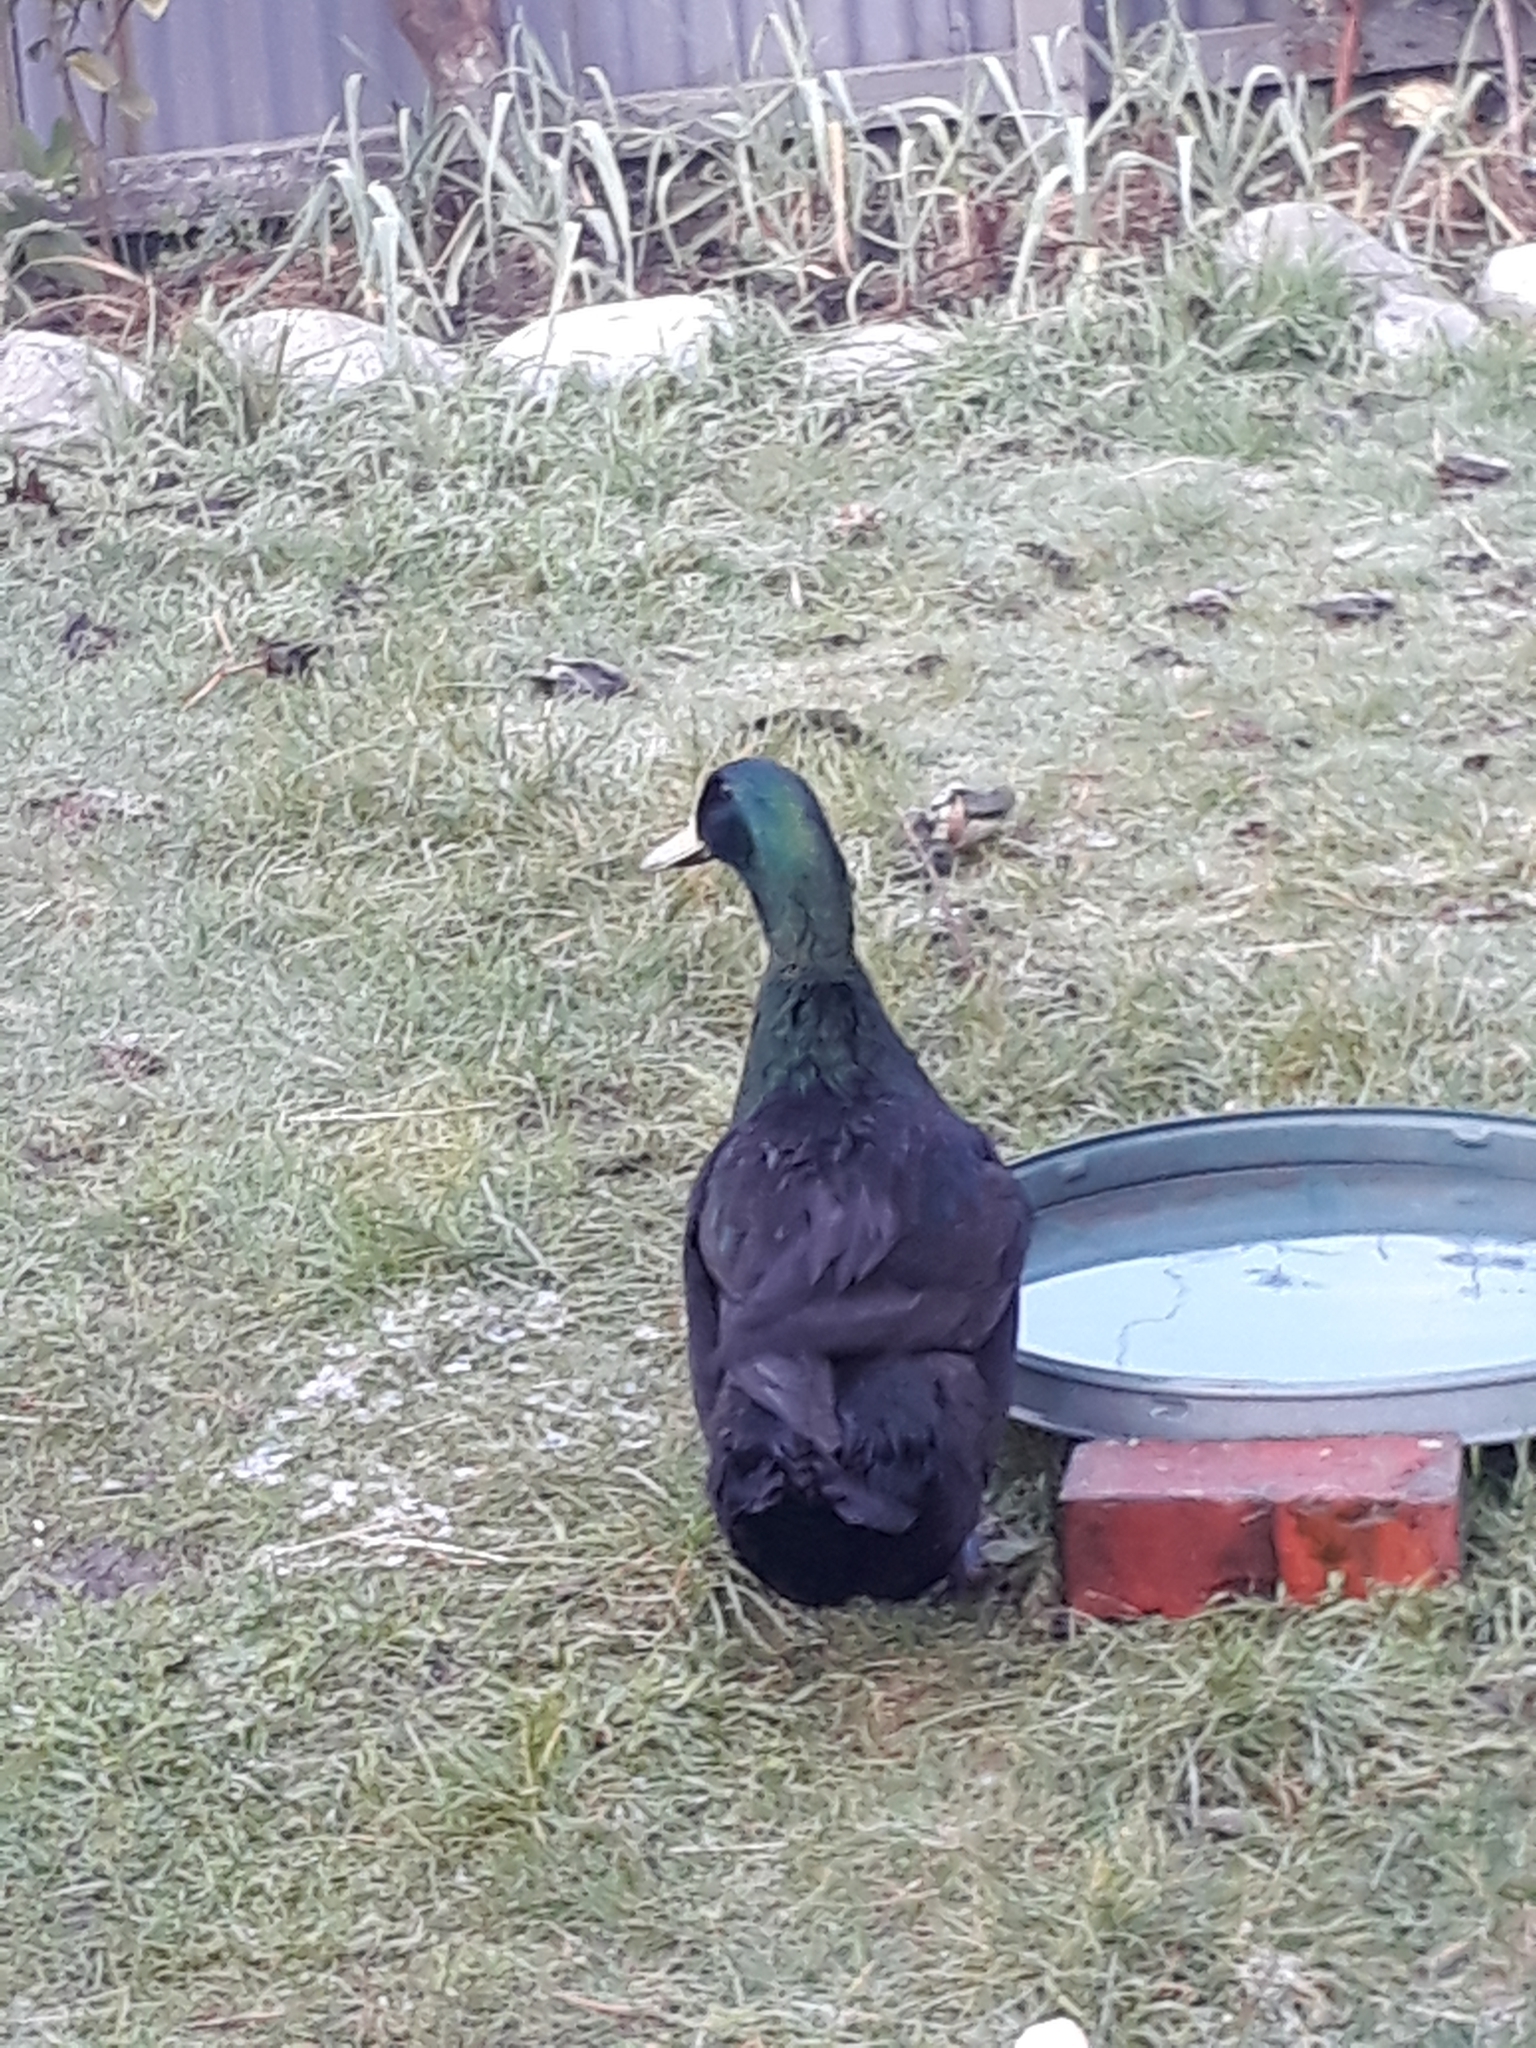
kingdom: Animalia
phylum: Chordata
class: Aves
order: Anseriformes
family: Anatidae
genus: Anas
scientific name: Anas platyrhynchos
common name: Mallard
